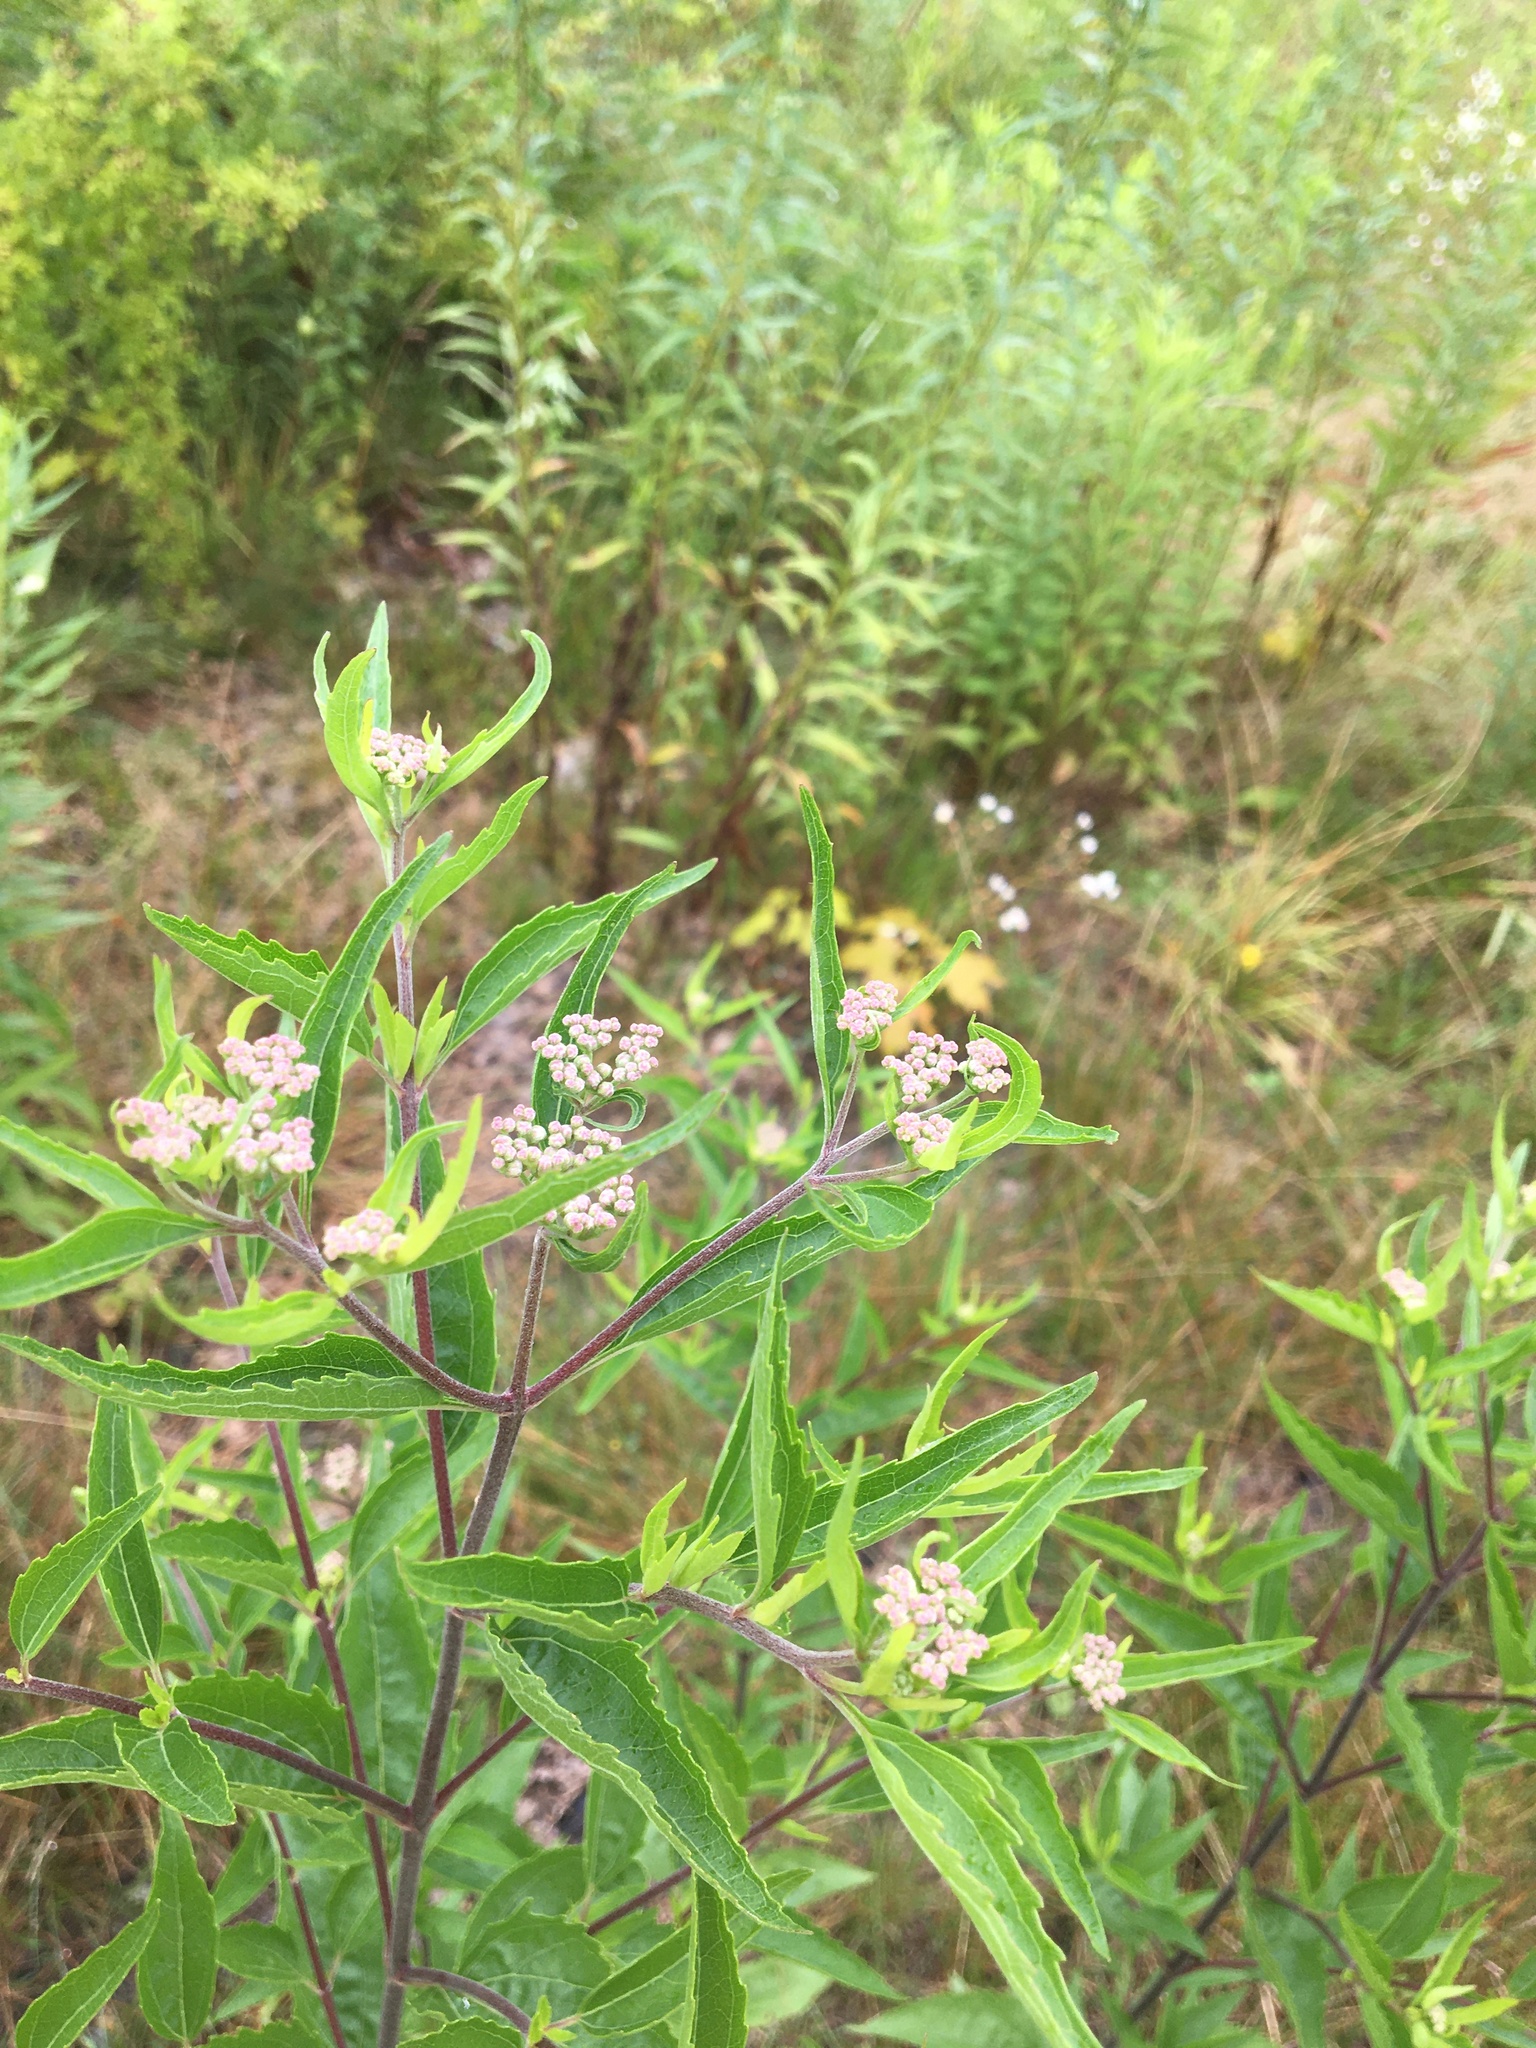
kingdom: Plantae
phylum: Tracheophyta
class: Magnoliopsida
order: Asterales
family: Asteraceae
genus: Eupatorium
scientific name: Eupatorium serotinum
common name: Late boneset
